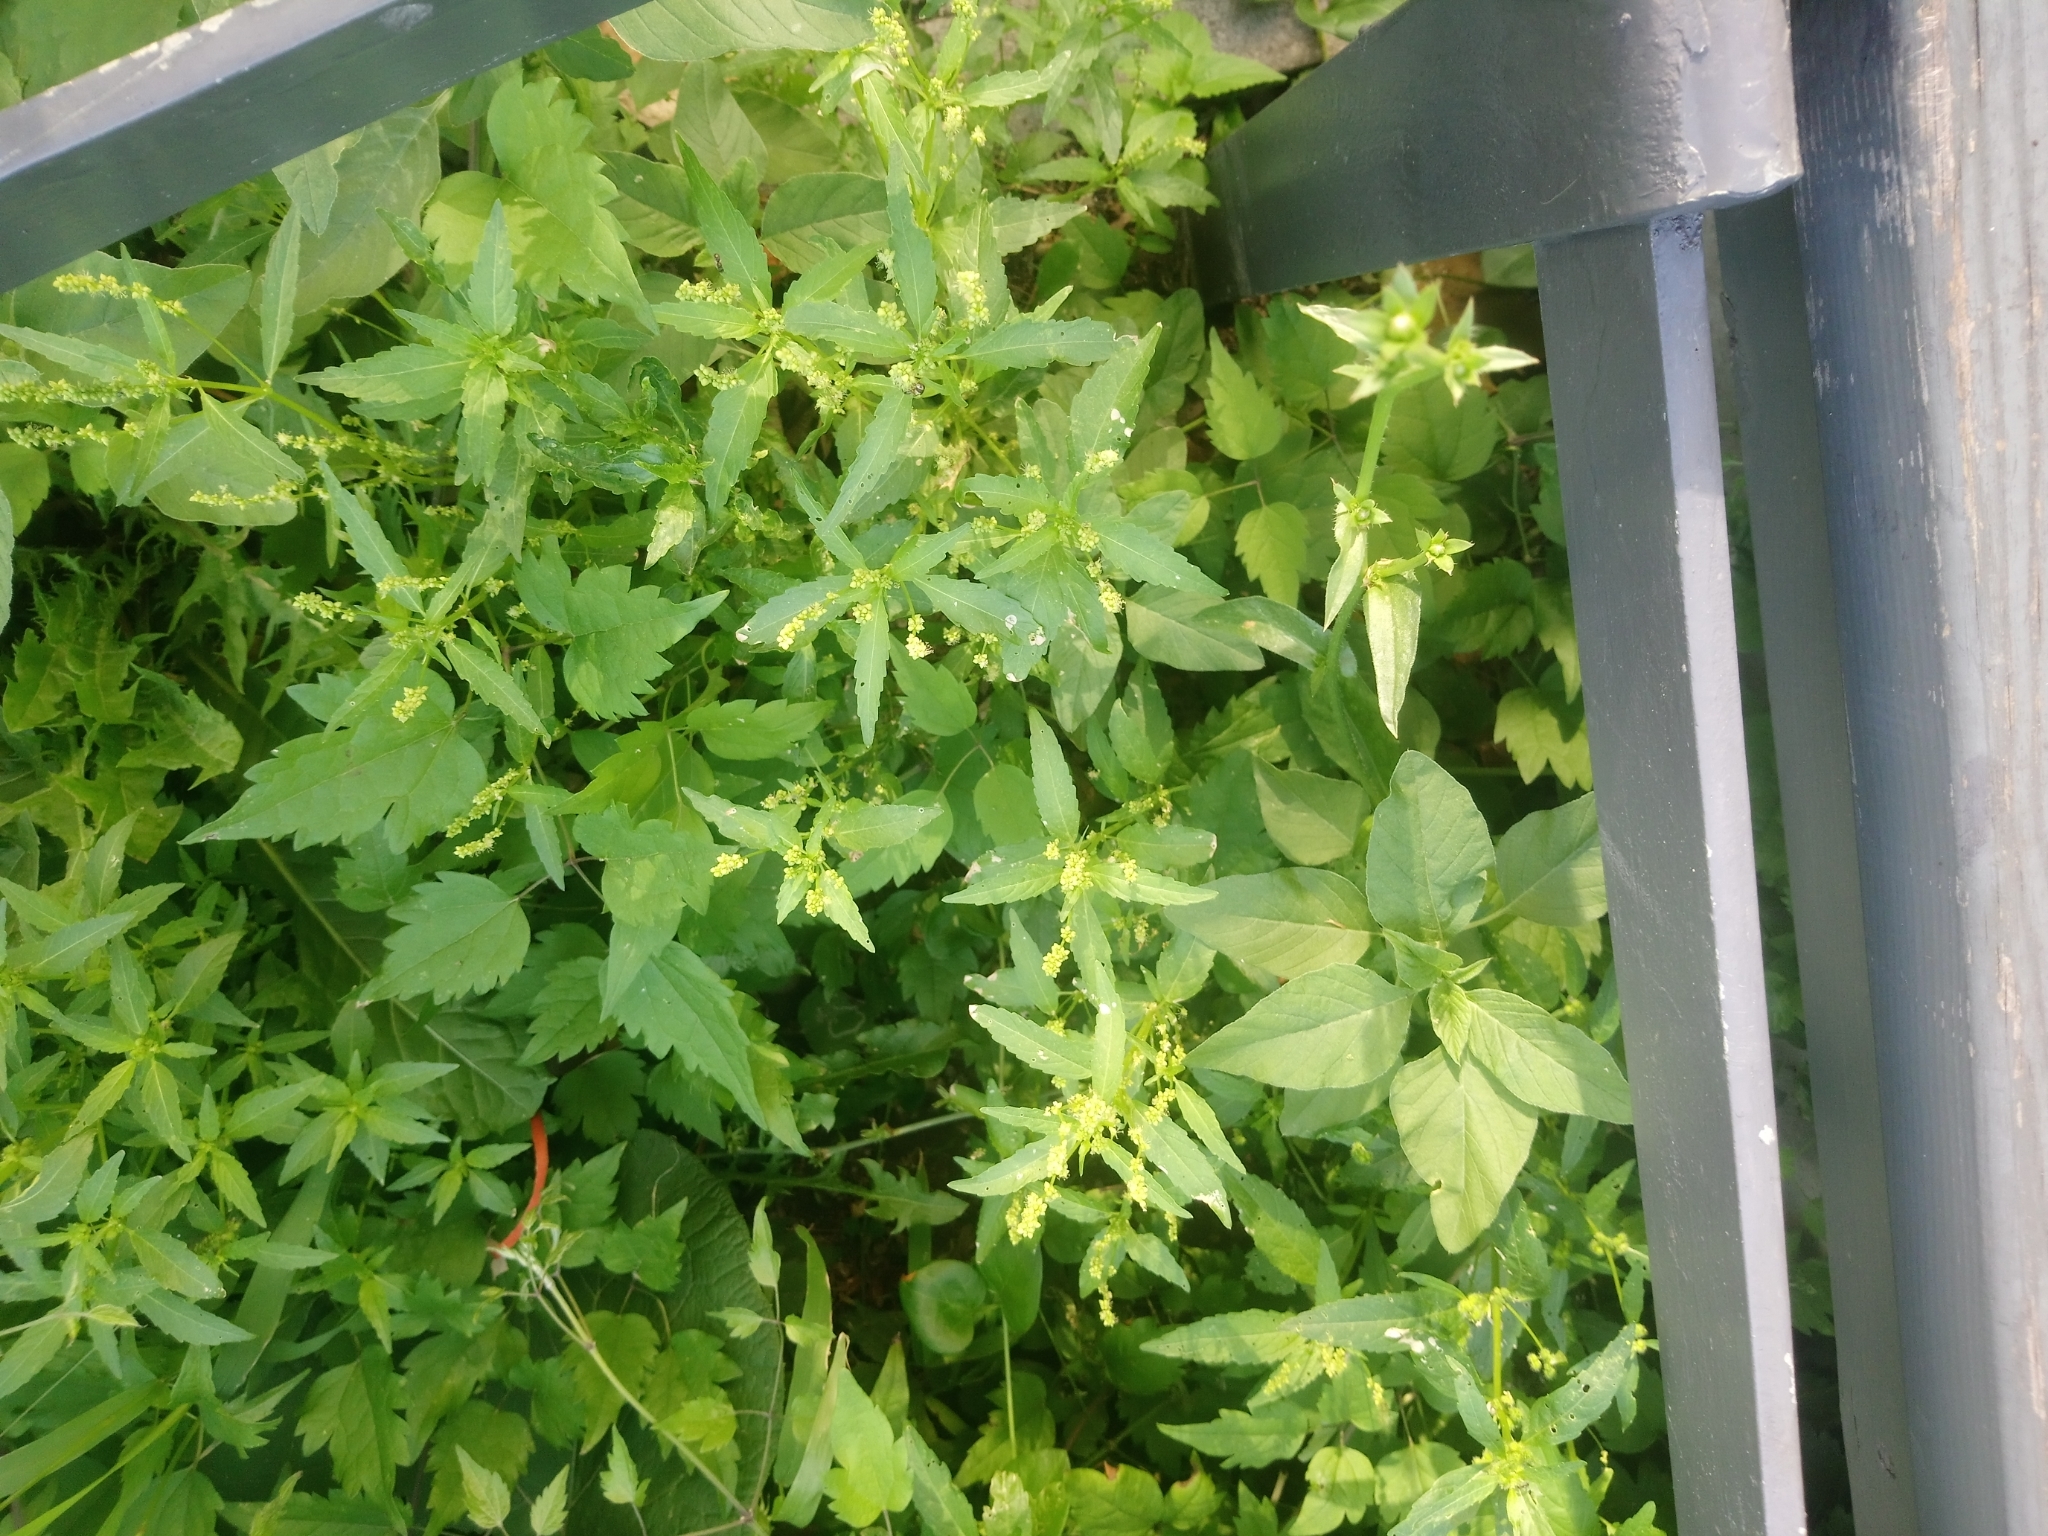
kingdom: Plantae
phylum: Tracheophyta
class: Magnoliopsida
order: Malpighiales
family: Euphorbiaceae
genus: Mercurialis
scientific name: Mercurialis annua
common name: Annual mercury
